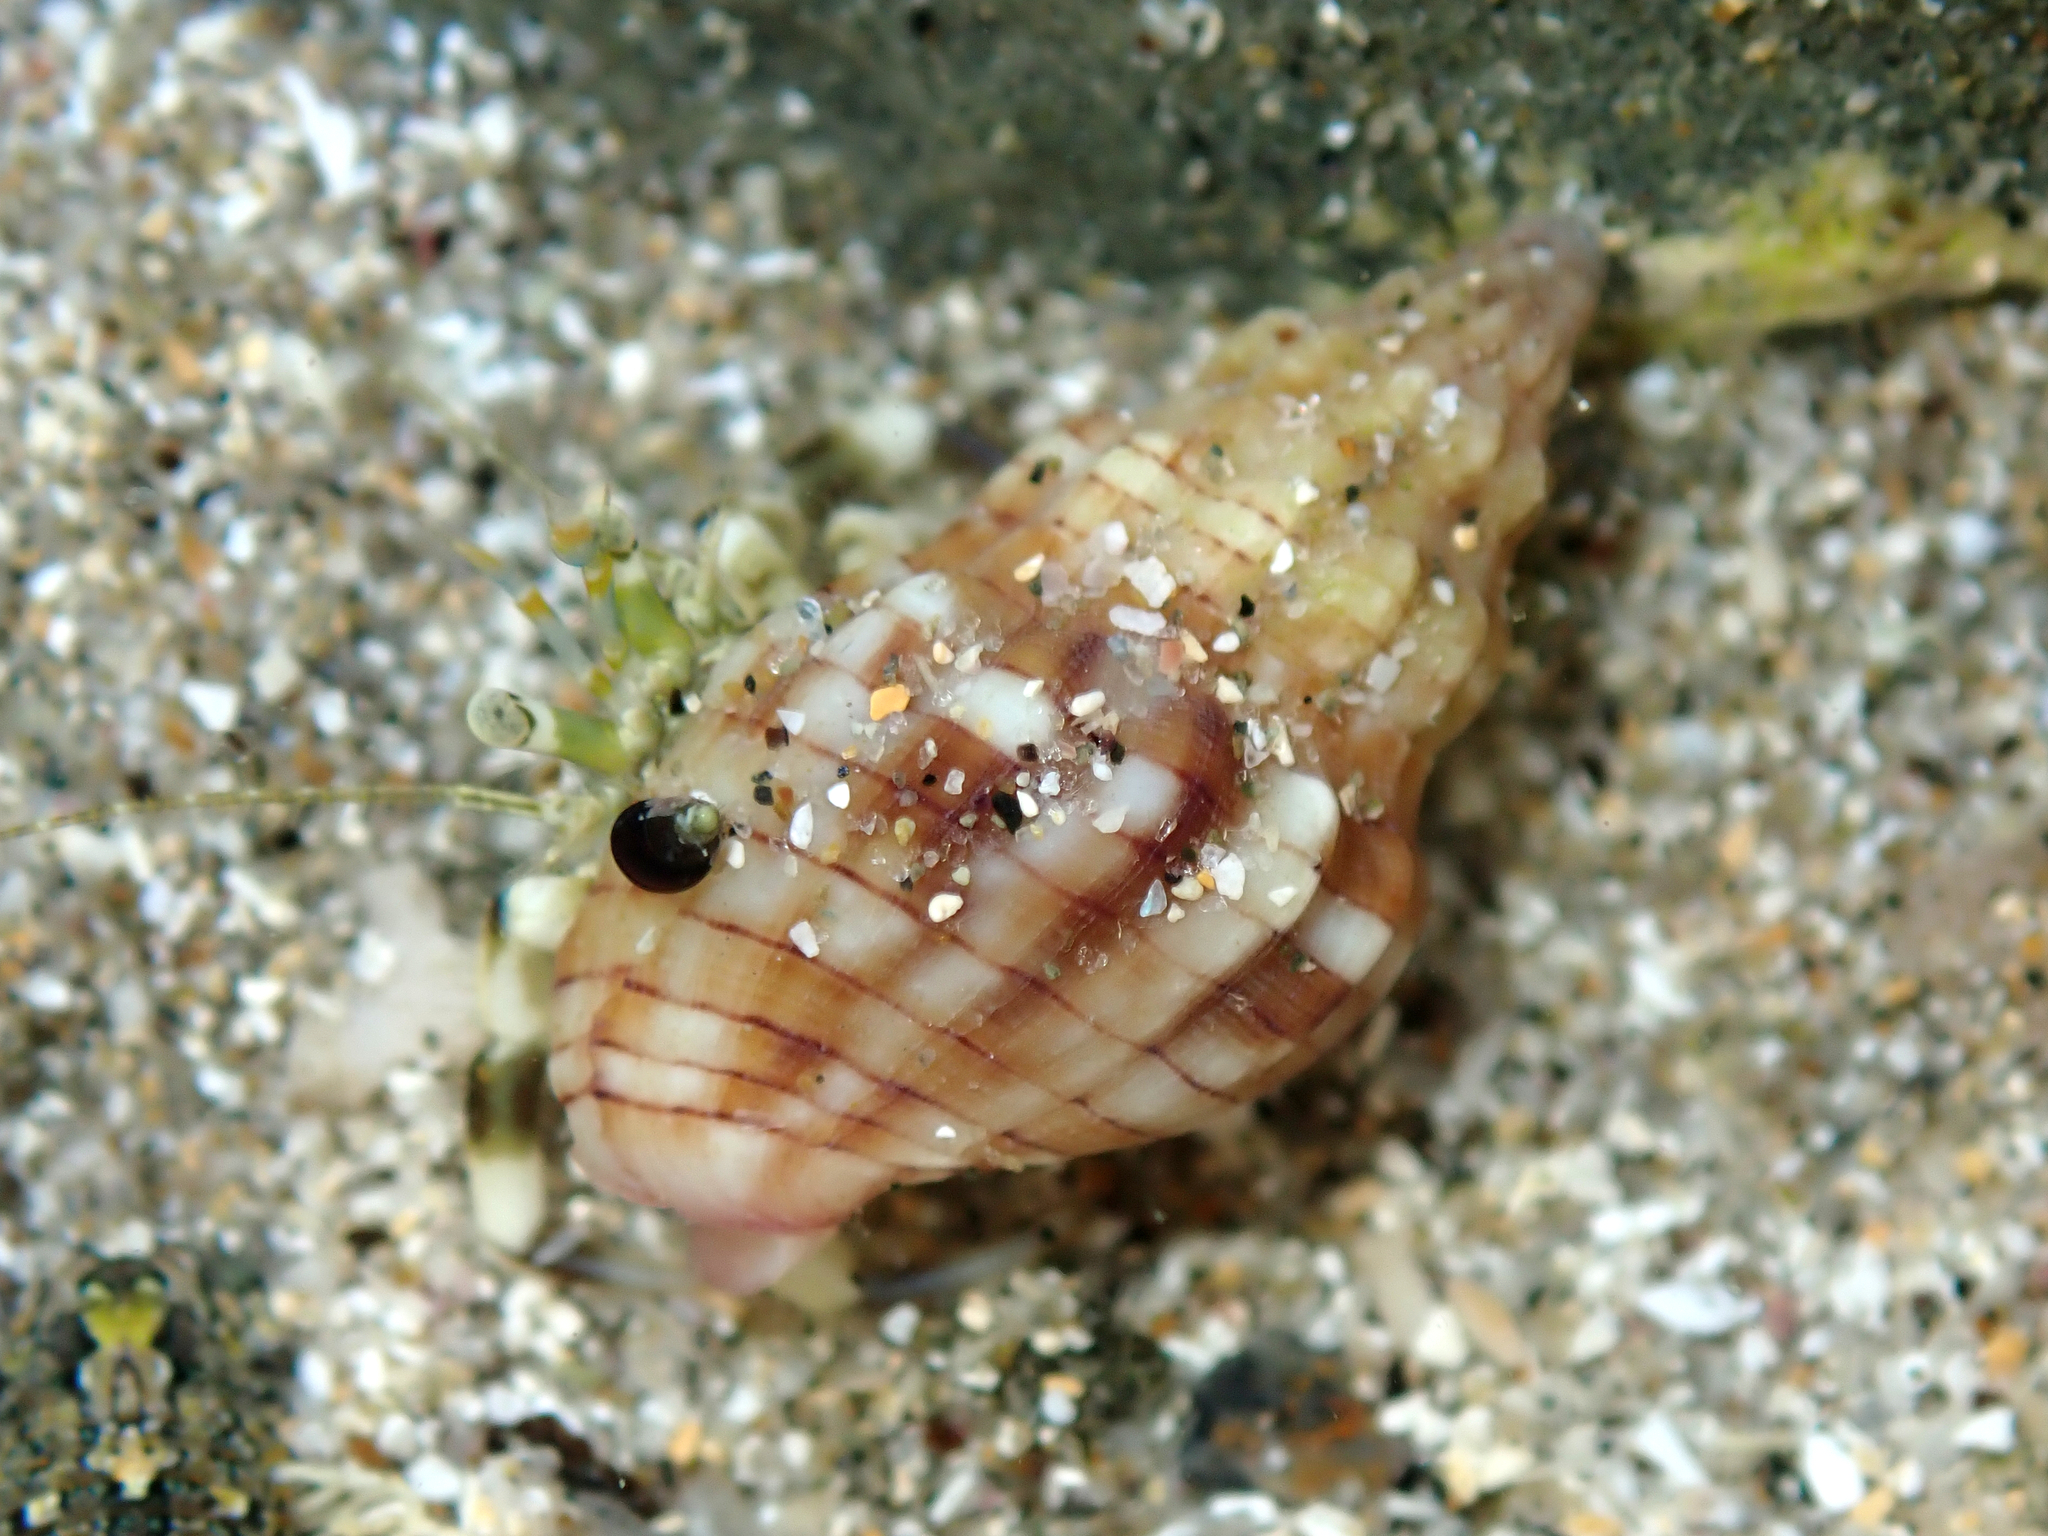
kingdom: Animalia
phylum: Mollusca
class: Gastropoda
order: Neogastropoda
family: Cominellidae
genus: Cominella
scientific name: Cominella quoyana
